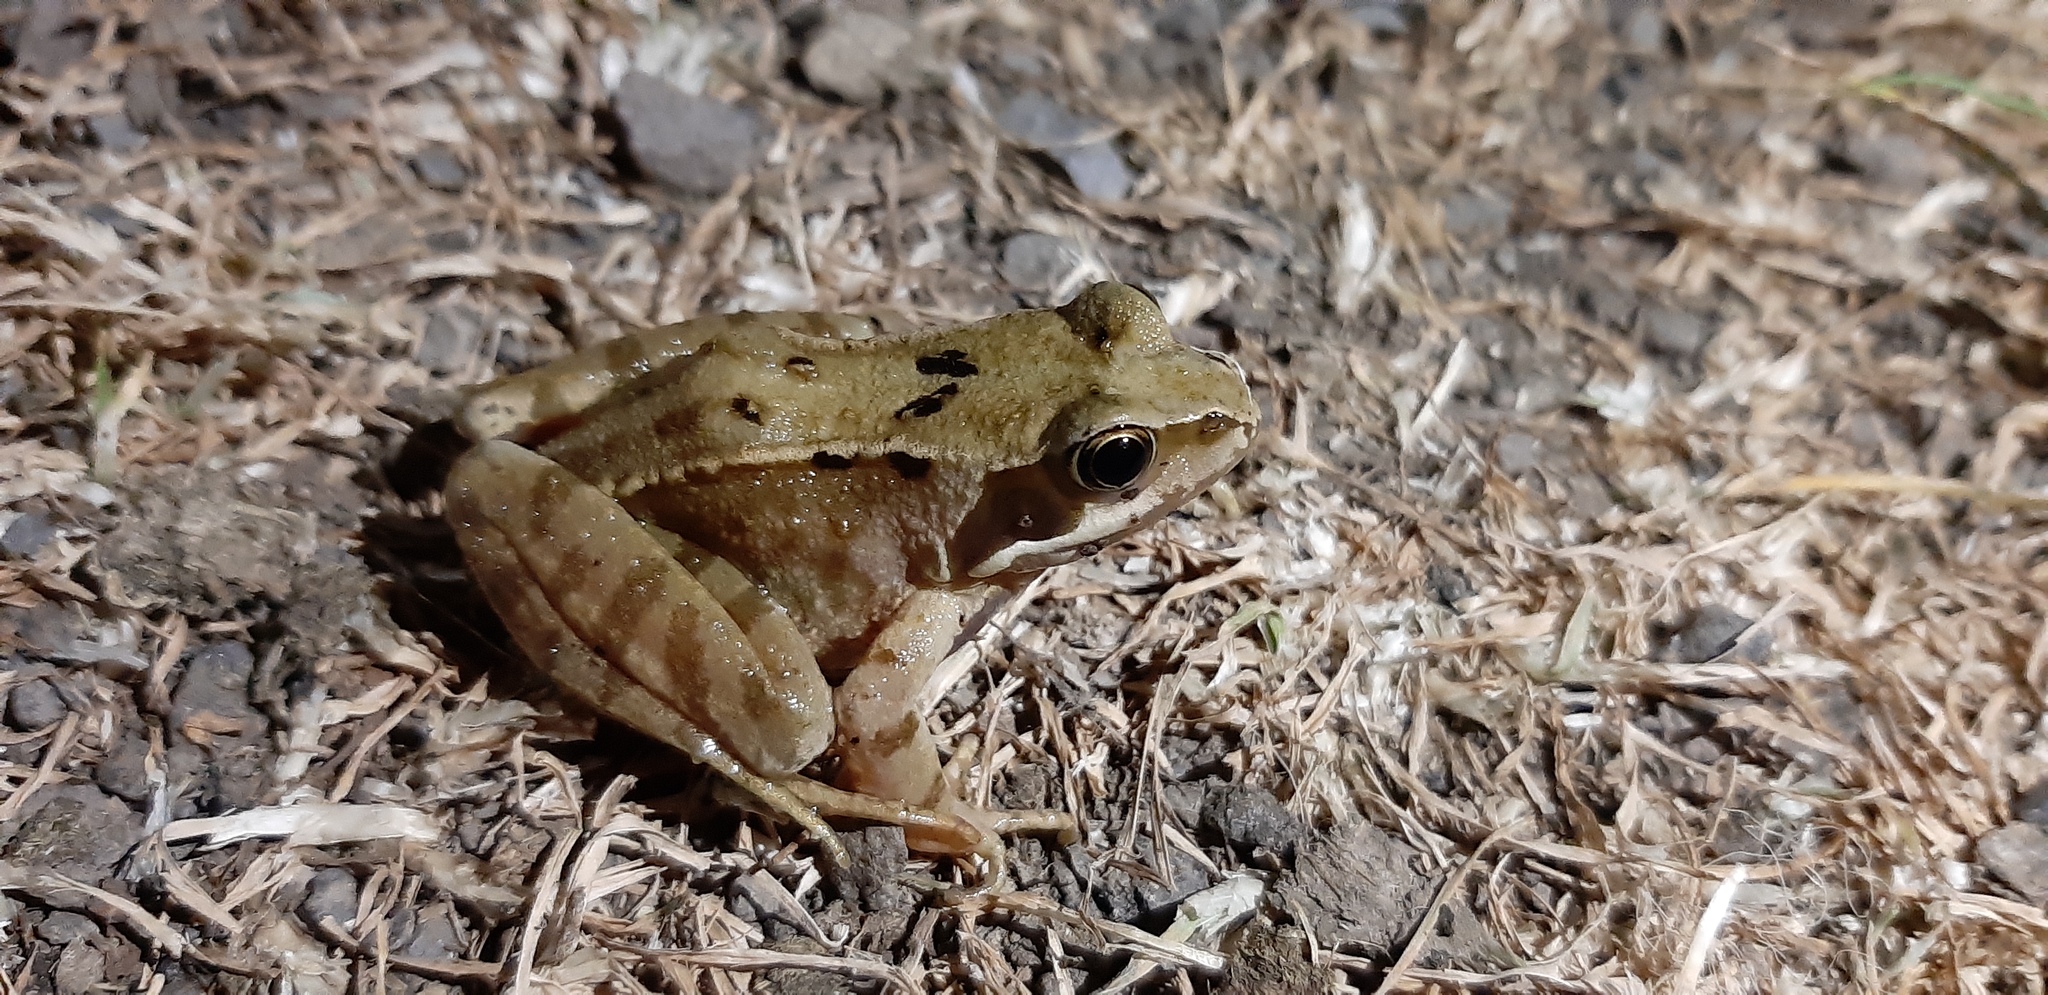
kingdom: Animalia
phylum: Chordata
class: Amphibia
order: Anura
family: Ranidae
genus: Rana
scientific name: Rana temporaria
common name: Common frog
